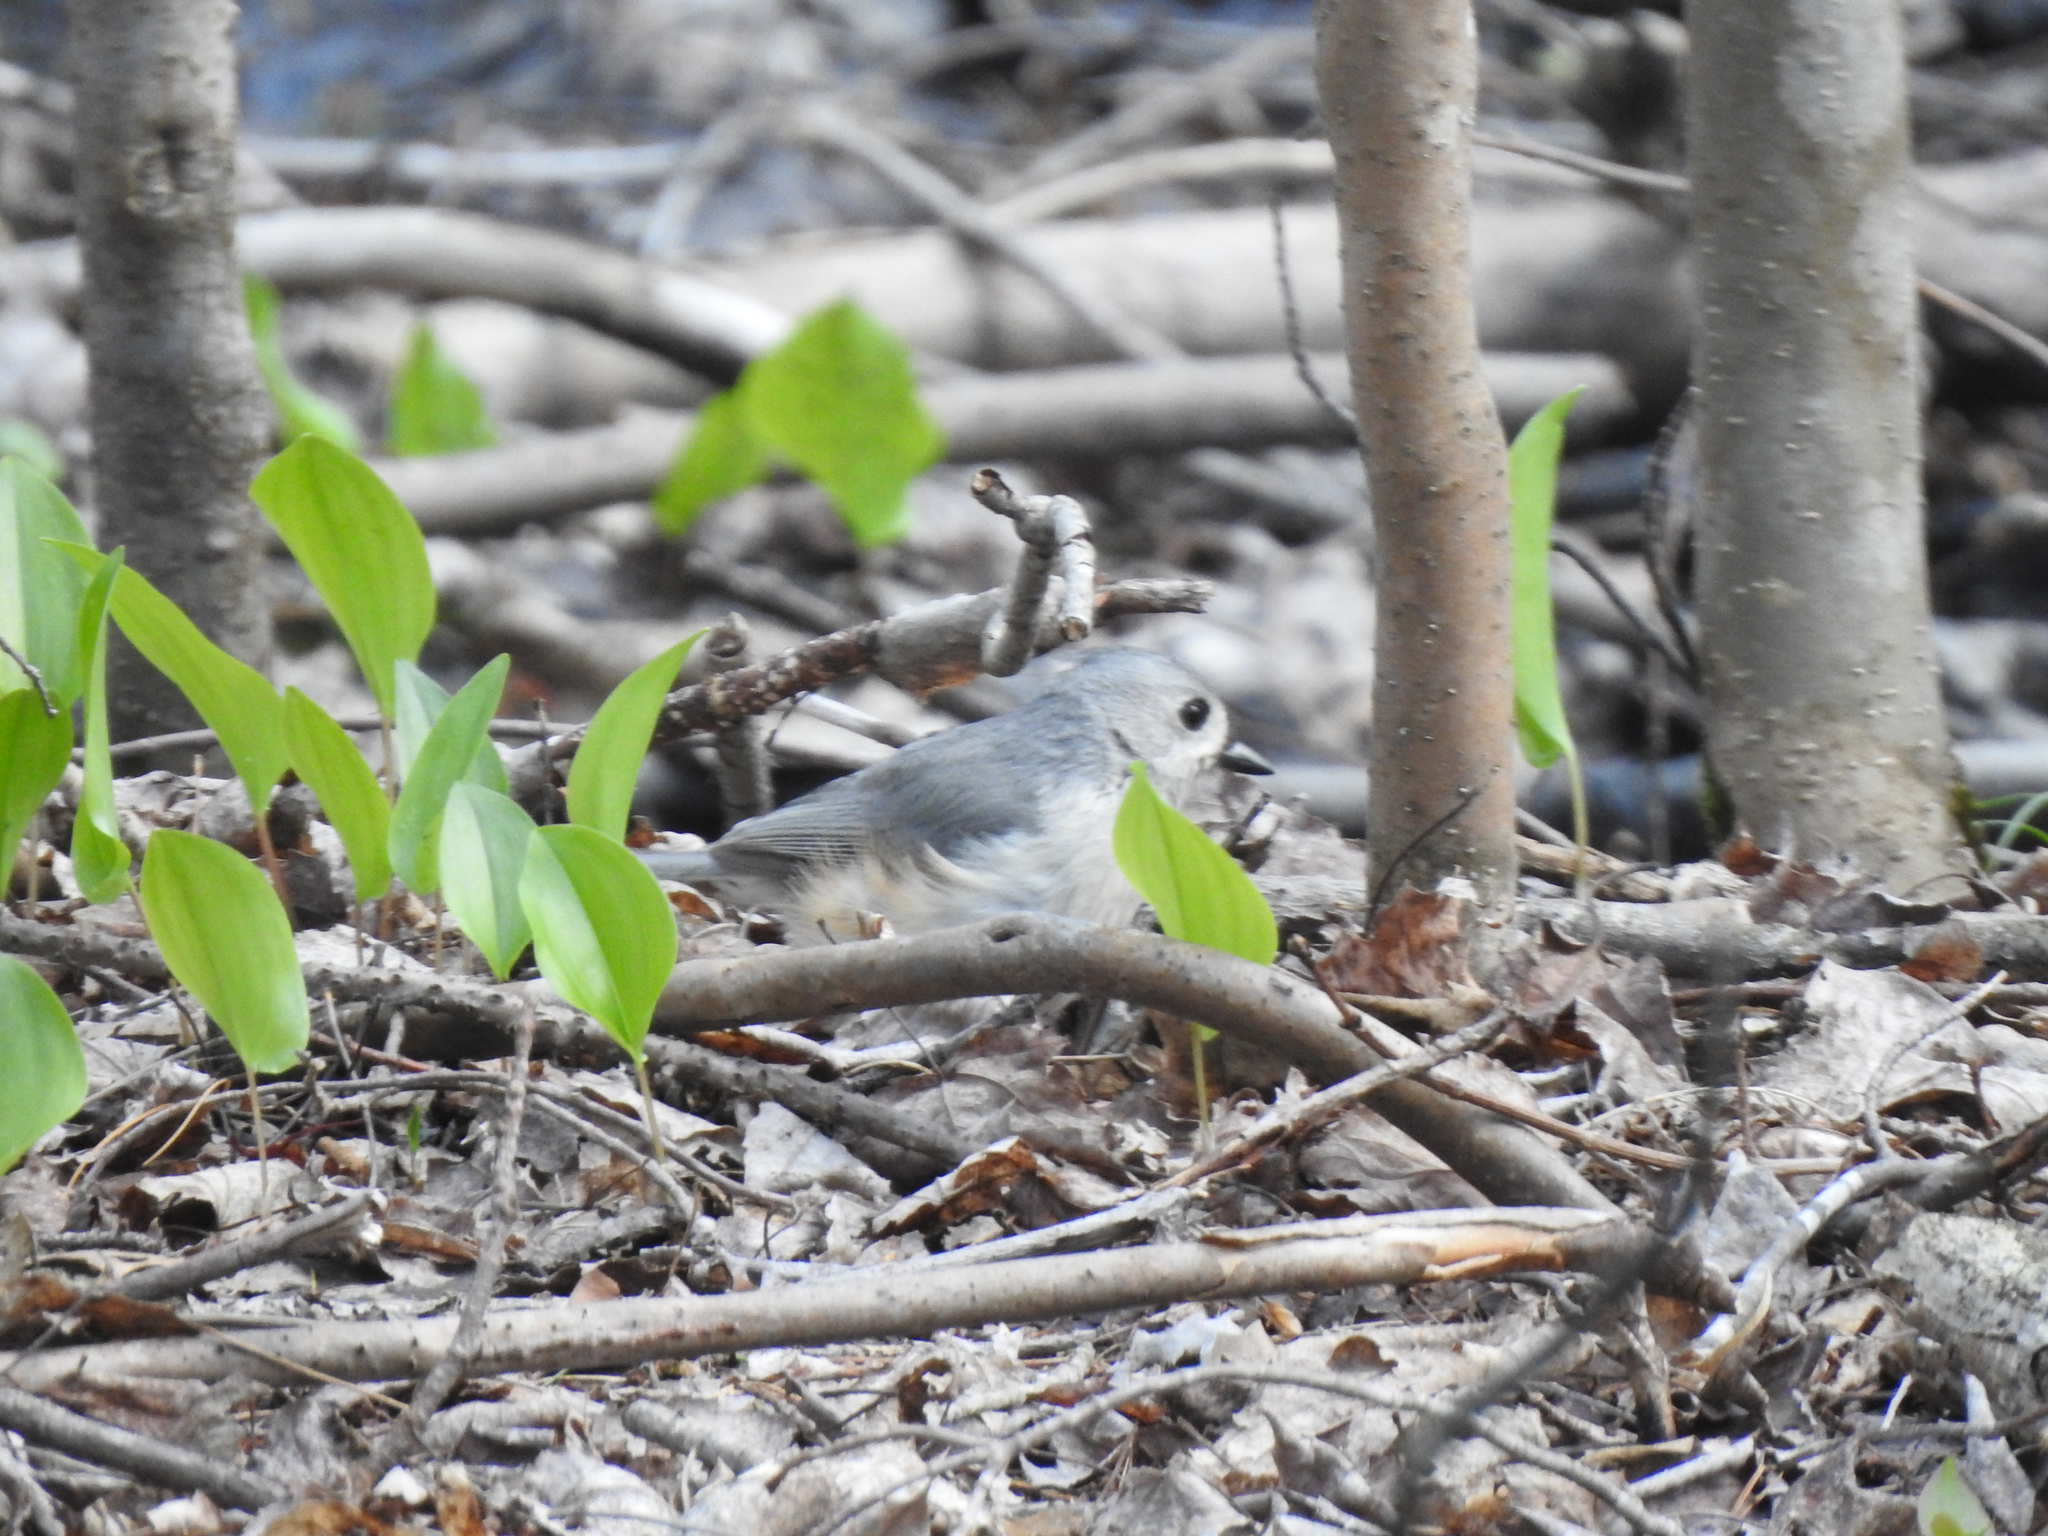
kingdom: Animalia
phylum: Chordata
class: Aves
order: Passeriformes
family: Paridae
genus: Baeolophus
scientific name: Baeolophus bicolor
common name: Tufted titmouse
